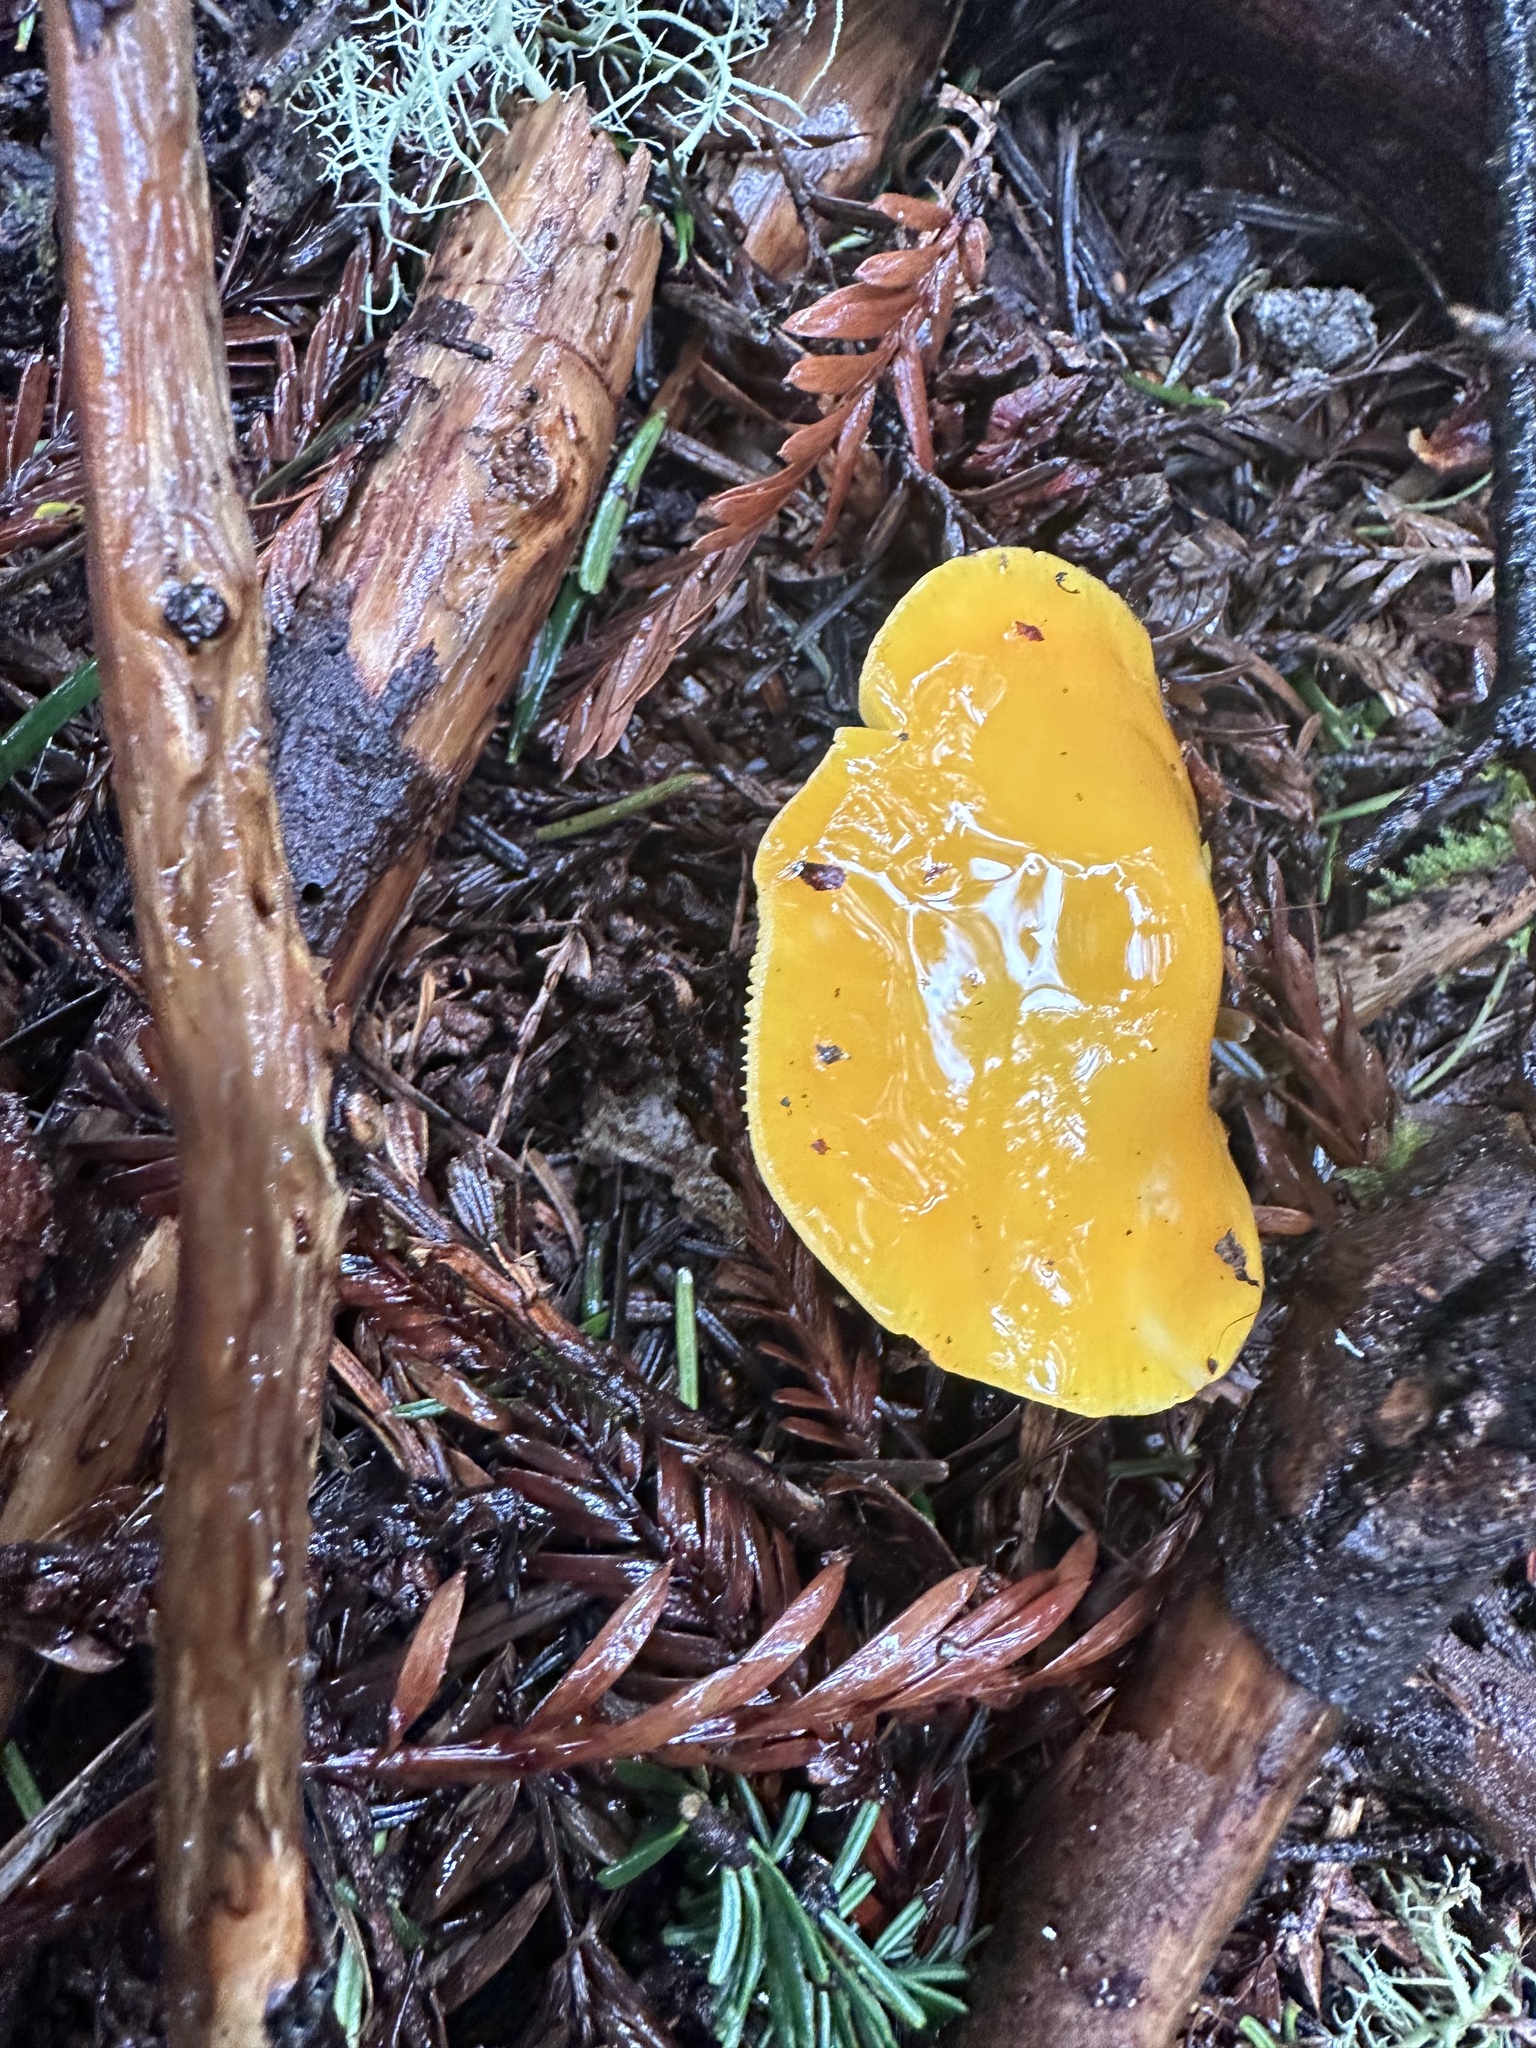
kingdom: Fungi
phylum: Basidiomycota
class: Agaricomycetes
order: Agaricales
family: Hygrophoraceae
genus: Hygrocybe
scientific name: Hygrocybe flavescens
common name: Golden waxy cap
